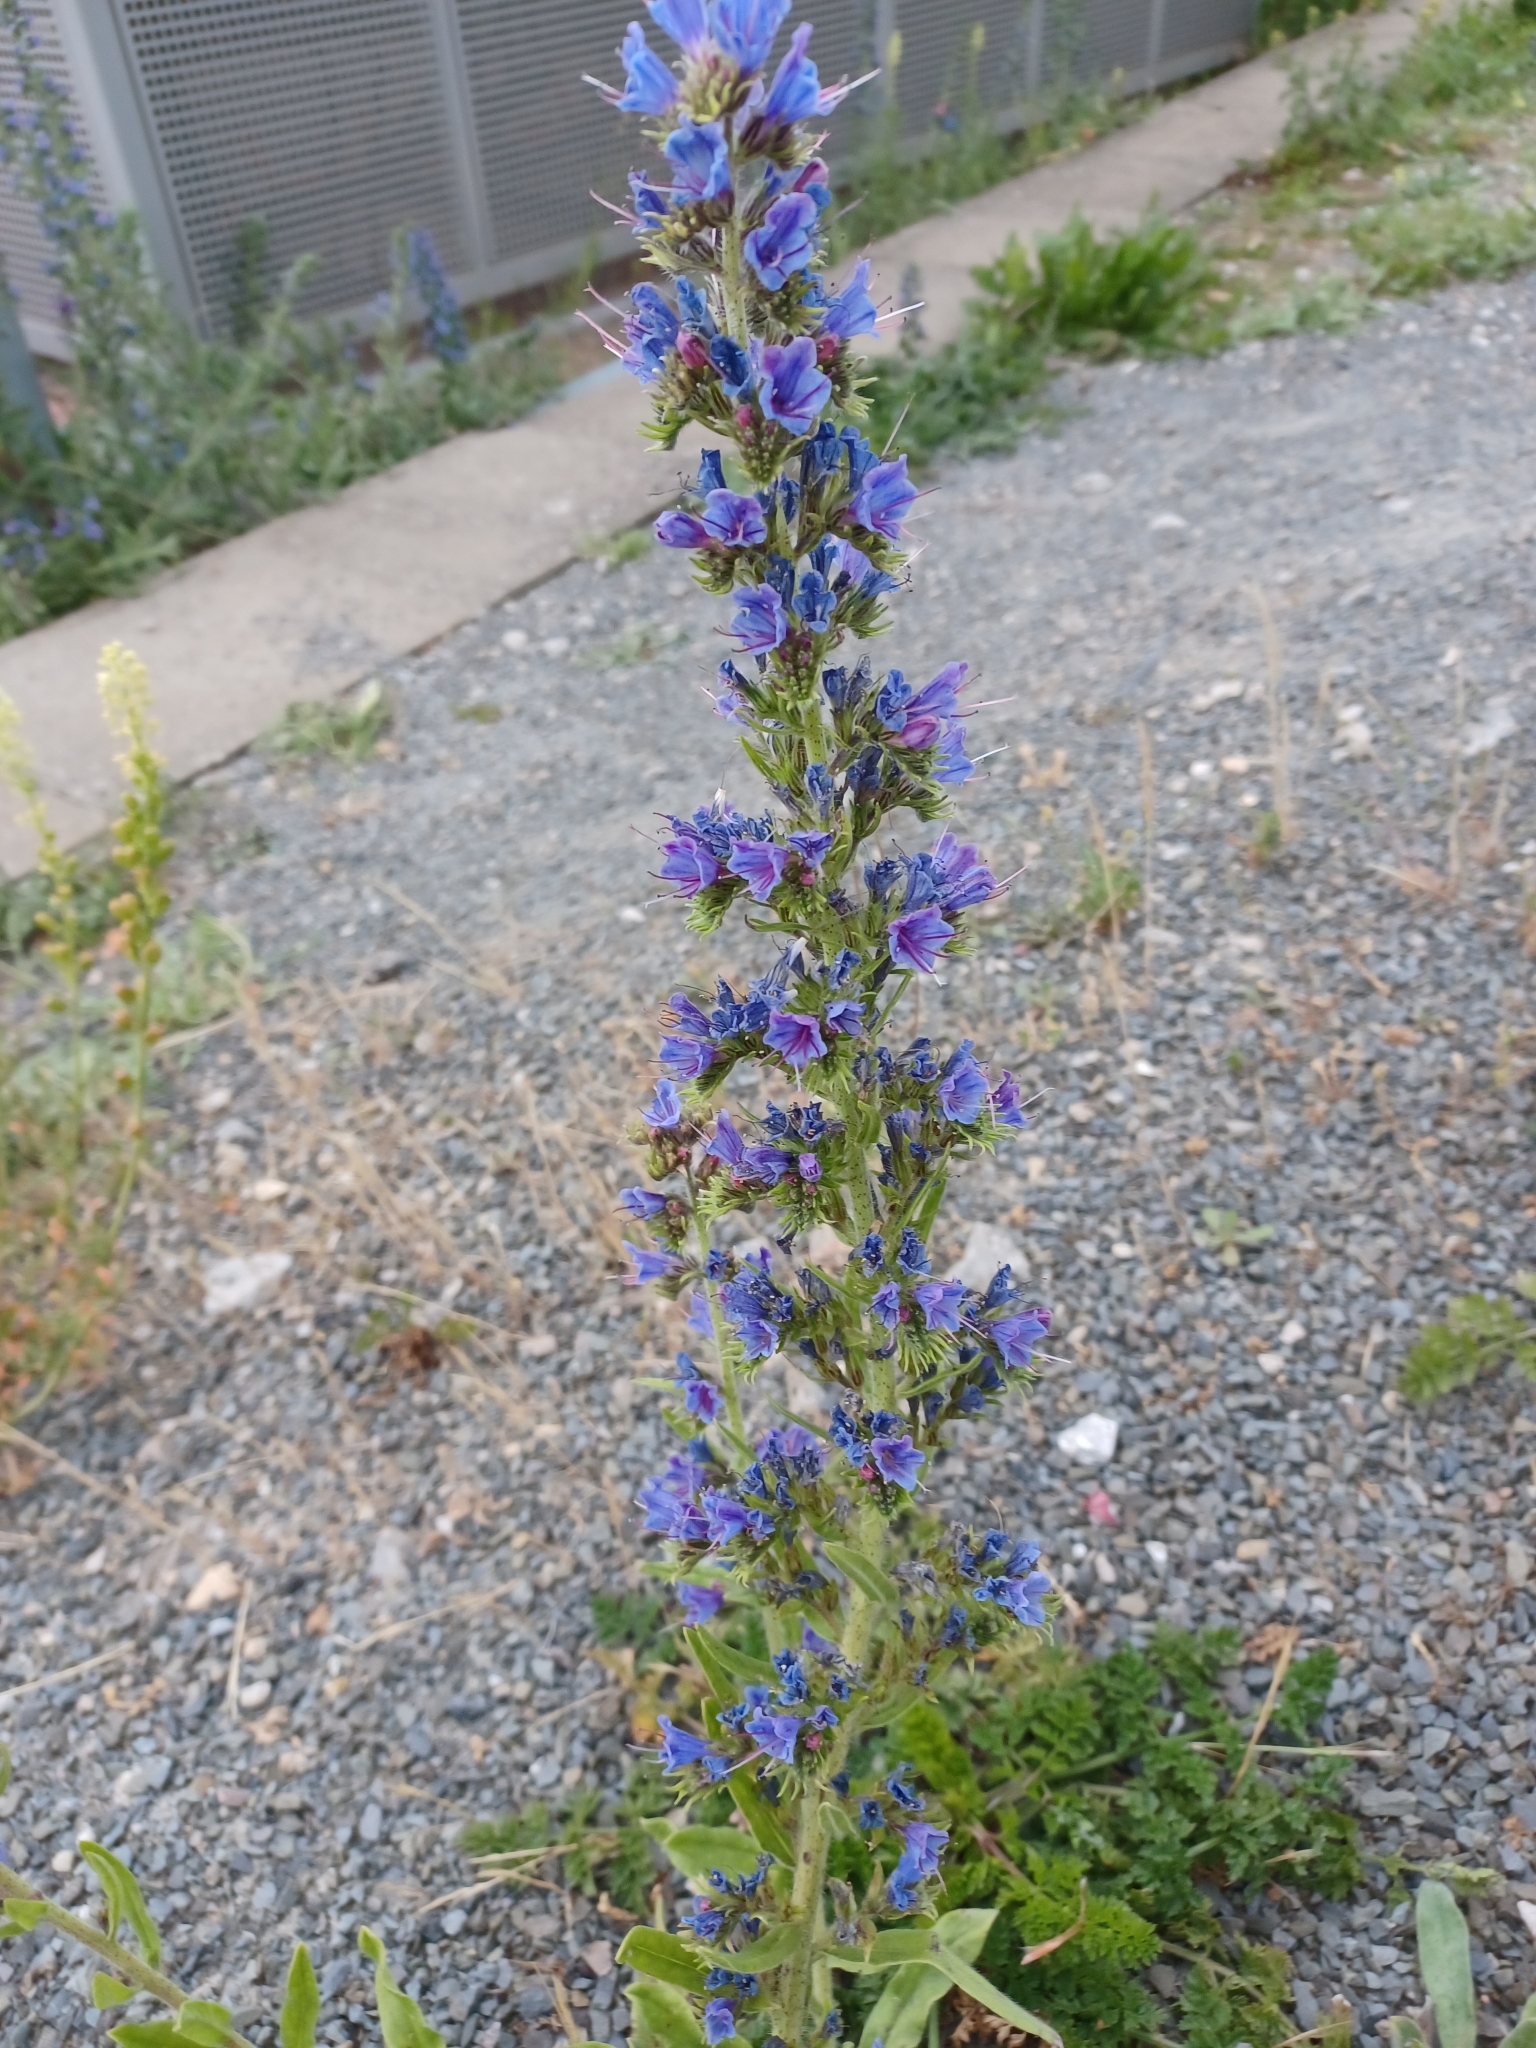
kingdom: Plantae
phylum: Tracheophyta
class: Magnoliopsida
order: Boraginales
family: Boraginaceae
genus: Echium
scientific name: Echium vulgare
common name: Common viper's bugloss
